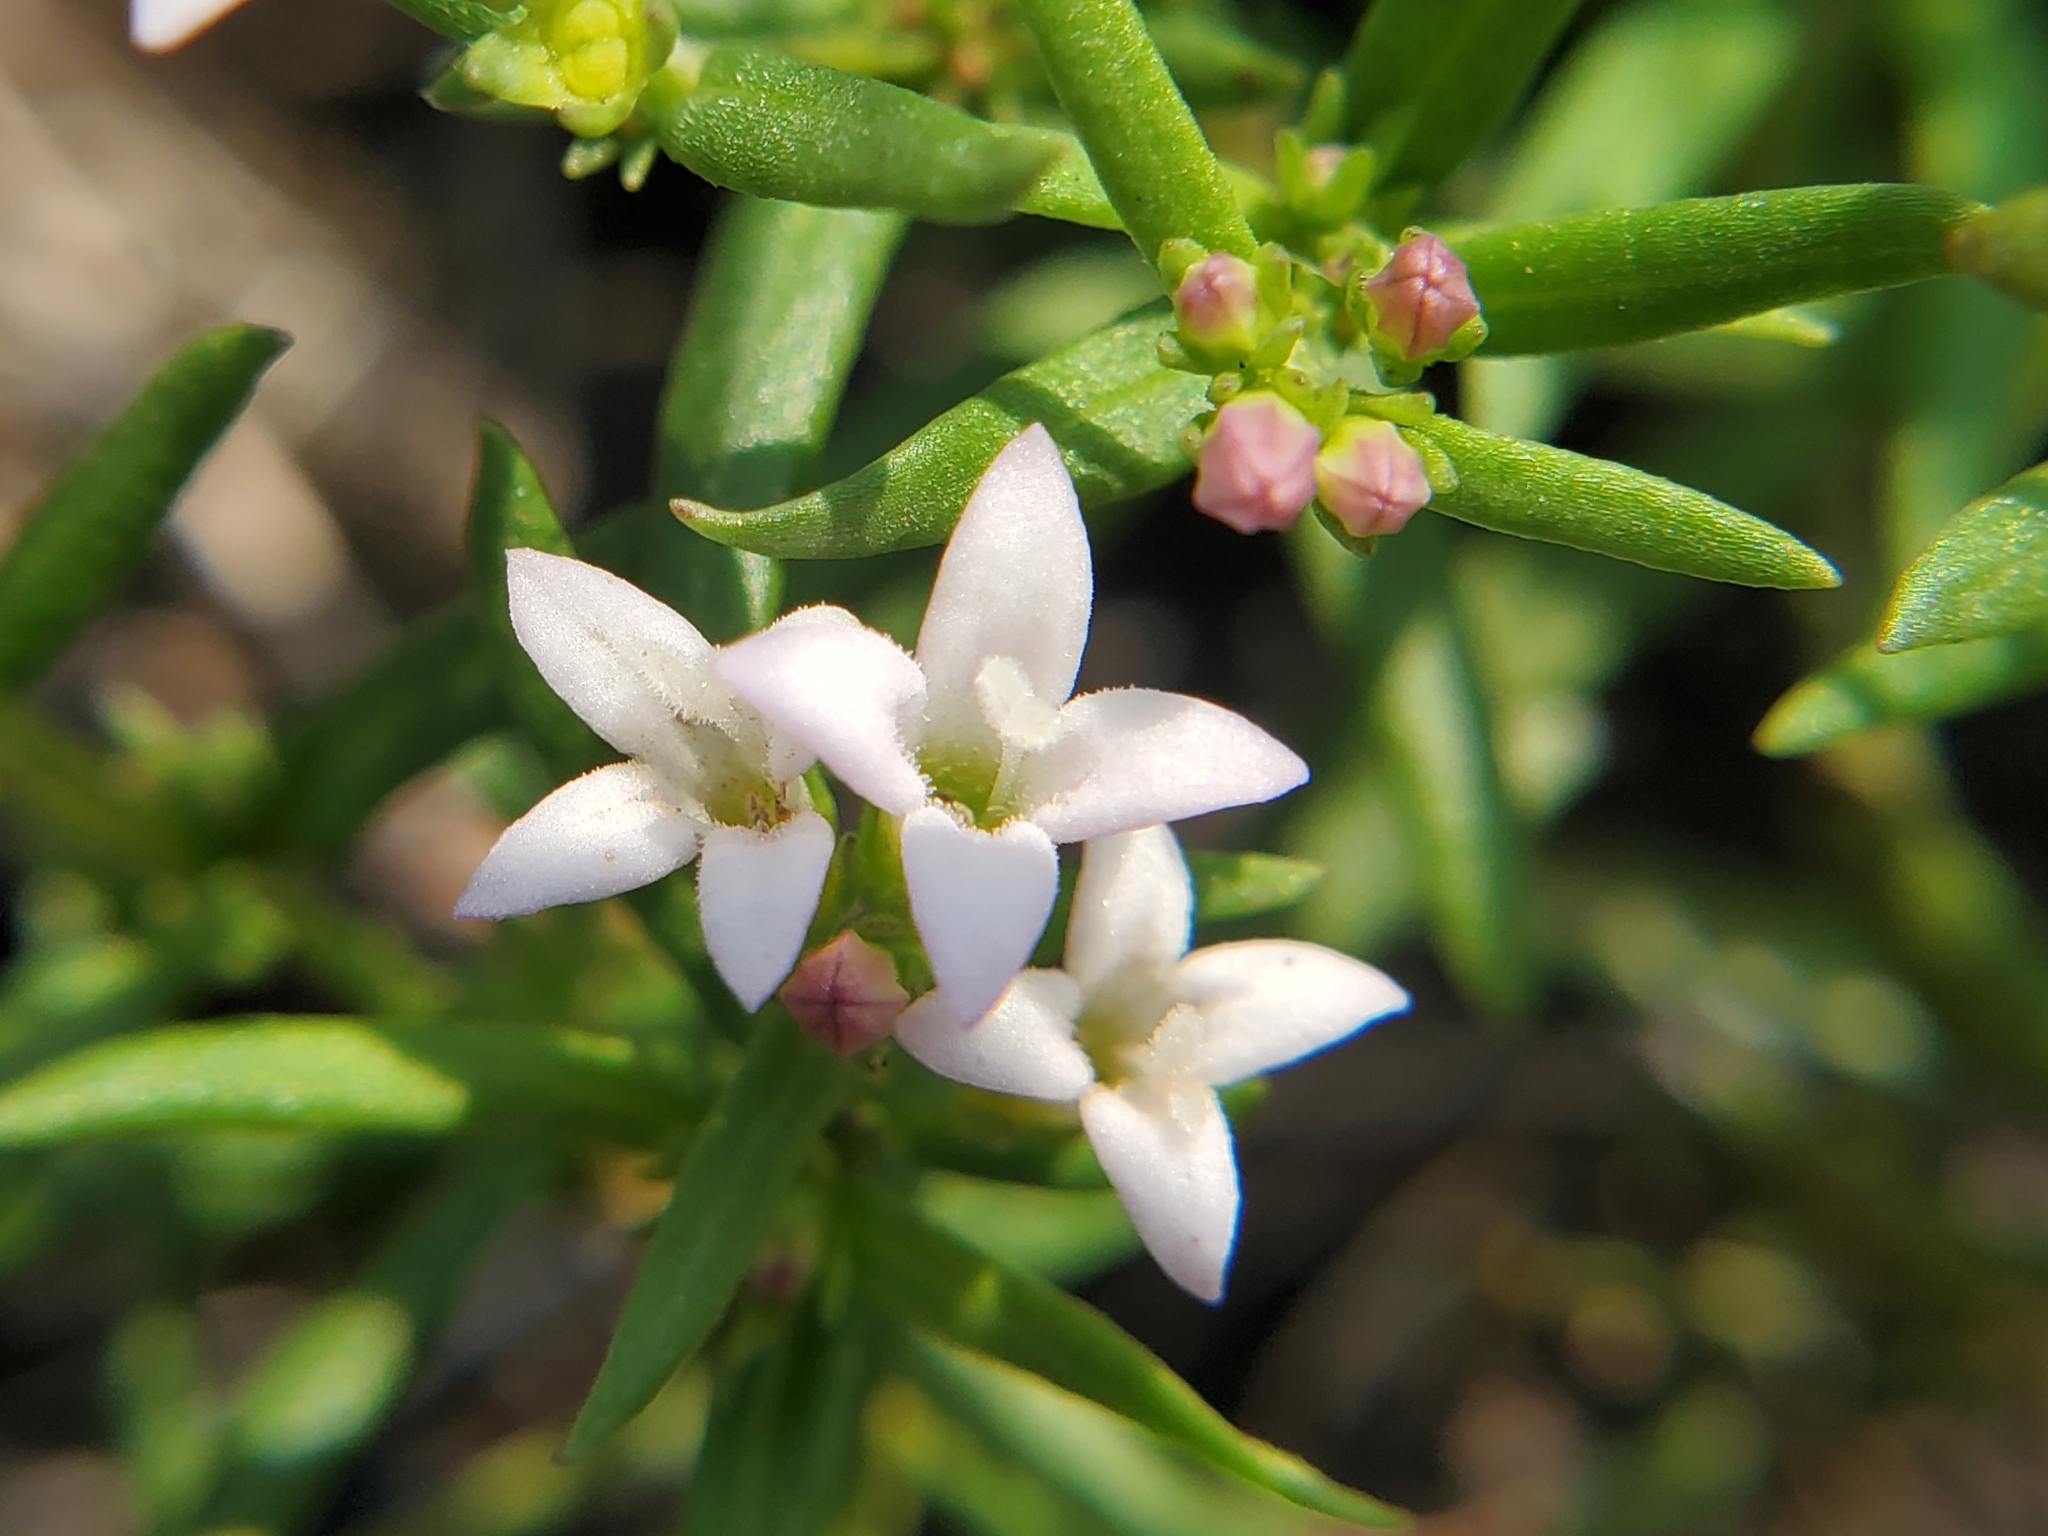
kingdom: Plantae
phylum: Tracheophyta
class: Magnoliopsida
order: Gentianales
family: Rubiaceae
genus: Houstonia
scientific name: Houstonia longifolia
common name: Long-leaved bluets
